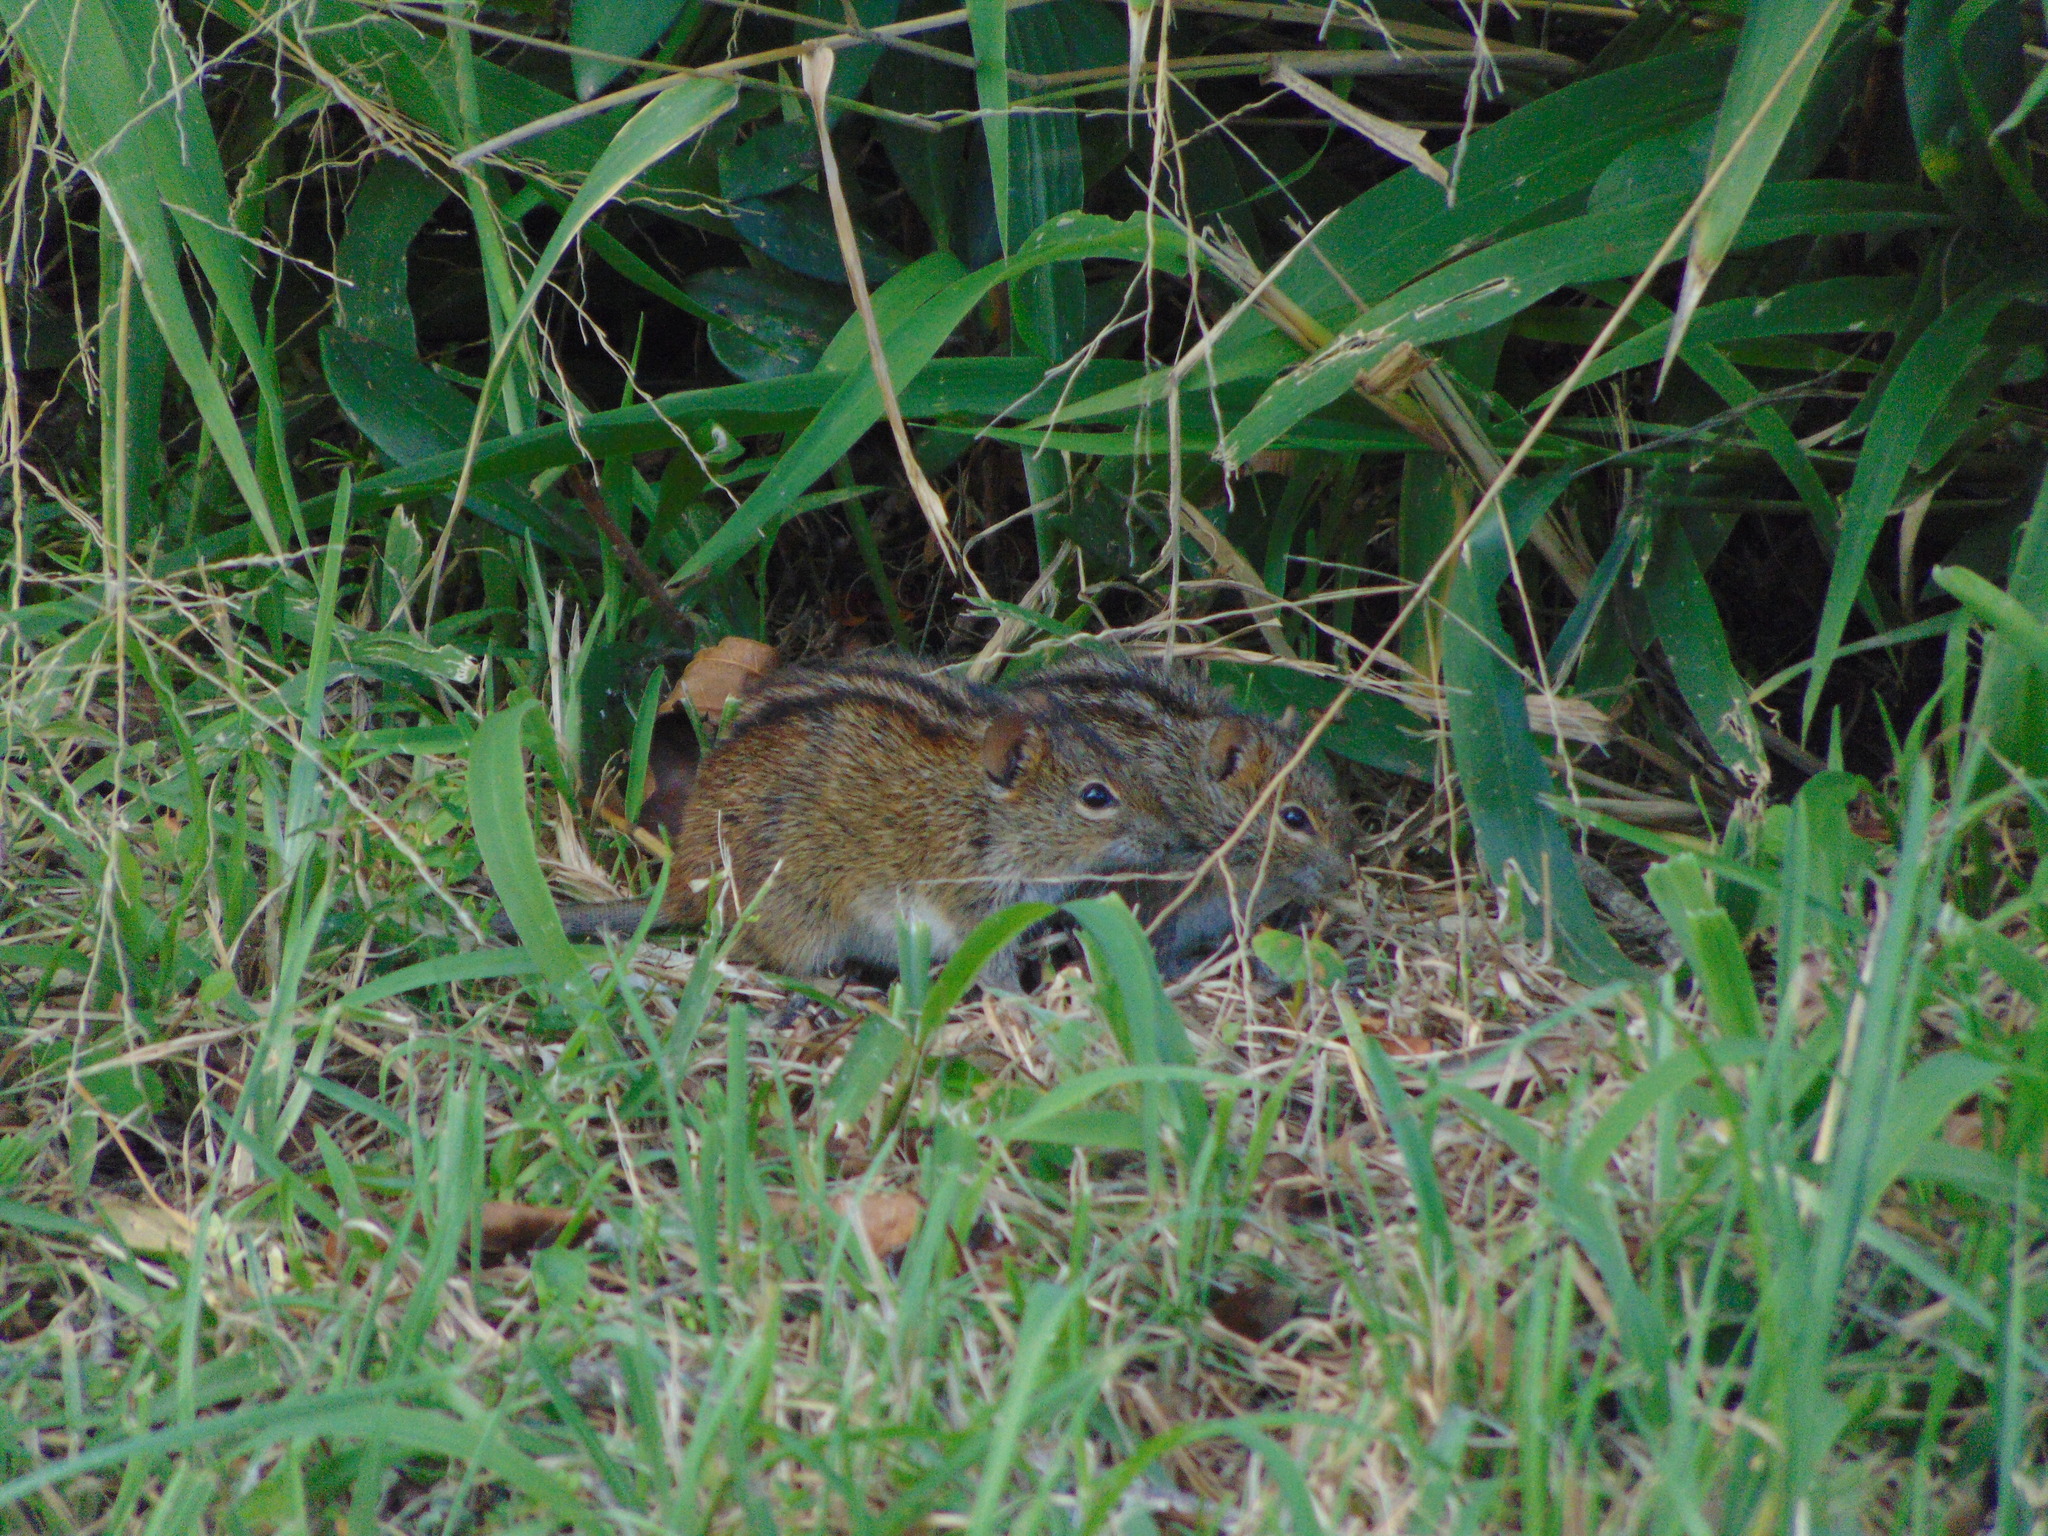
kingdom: Animalia
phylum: Chordata
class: Mammalia
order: Rodentia
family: Muridae
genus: Rhabdomys
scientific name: Rhabdomys pumilio
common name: Xeric four-striped grass rat
